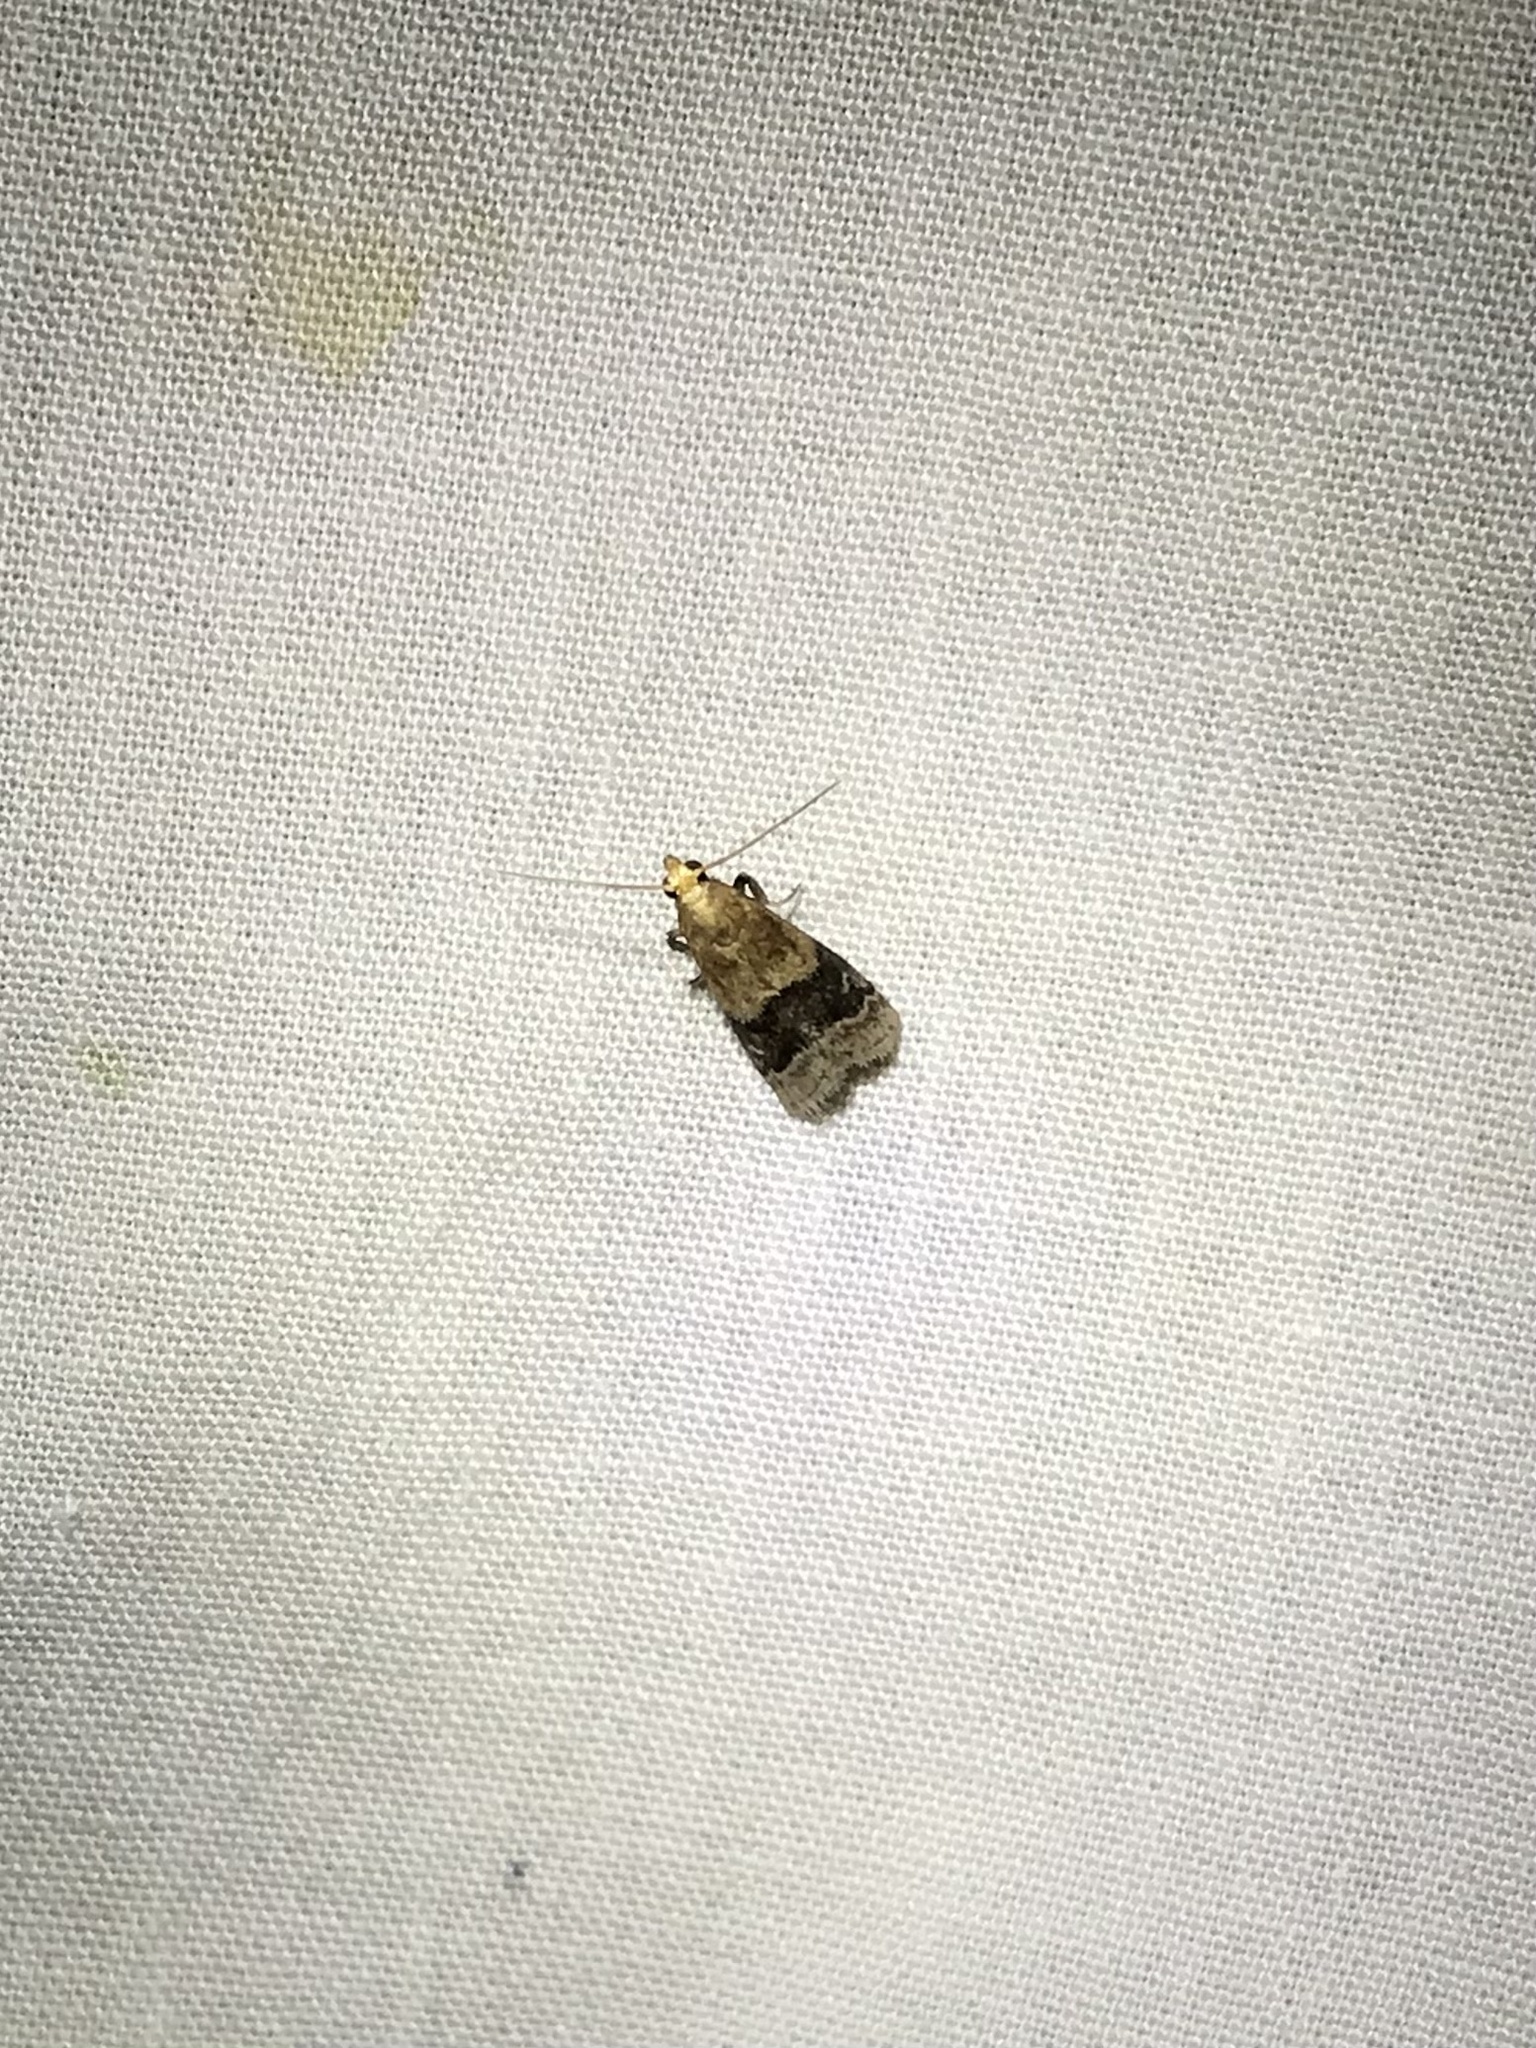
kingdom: Animalia
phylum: Arthropoda
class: Insecta
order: Lepidoptera
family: Pyralidae
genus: Eulogia
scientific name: Eulogia ochrifrontella
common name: Broad-banded eulogia moth
